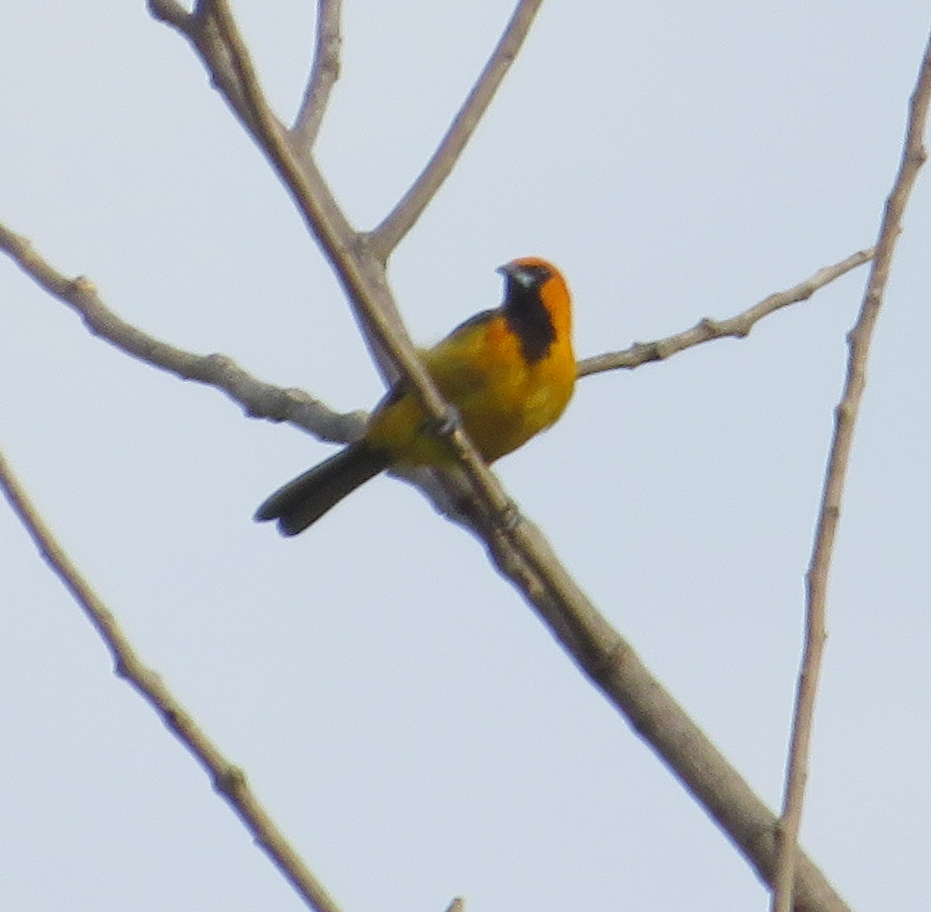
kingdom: Animalia
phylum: Chordata
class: Aves
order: Passeriformes
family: Icteridae
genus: Icterus
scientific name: Icterus gularis
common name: Altamira oriole
